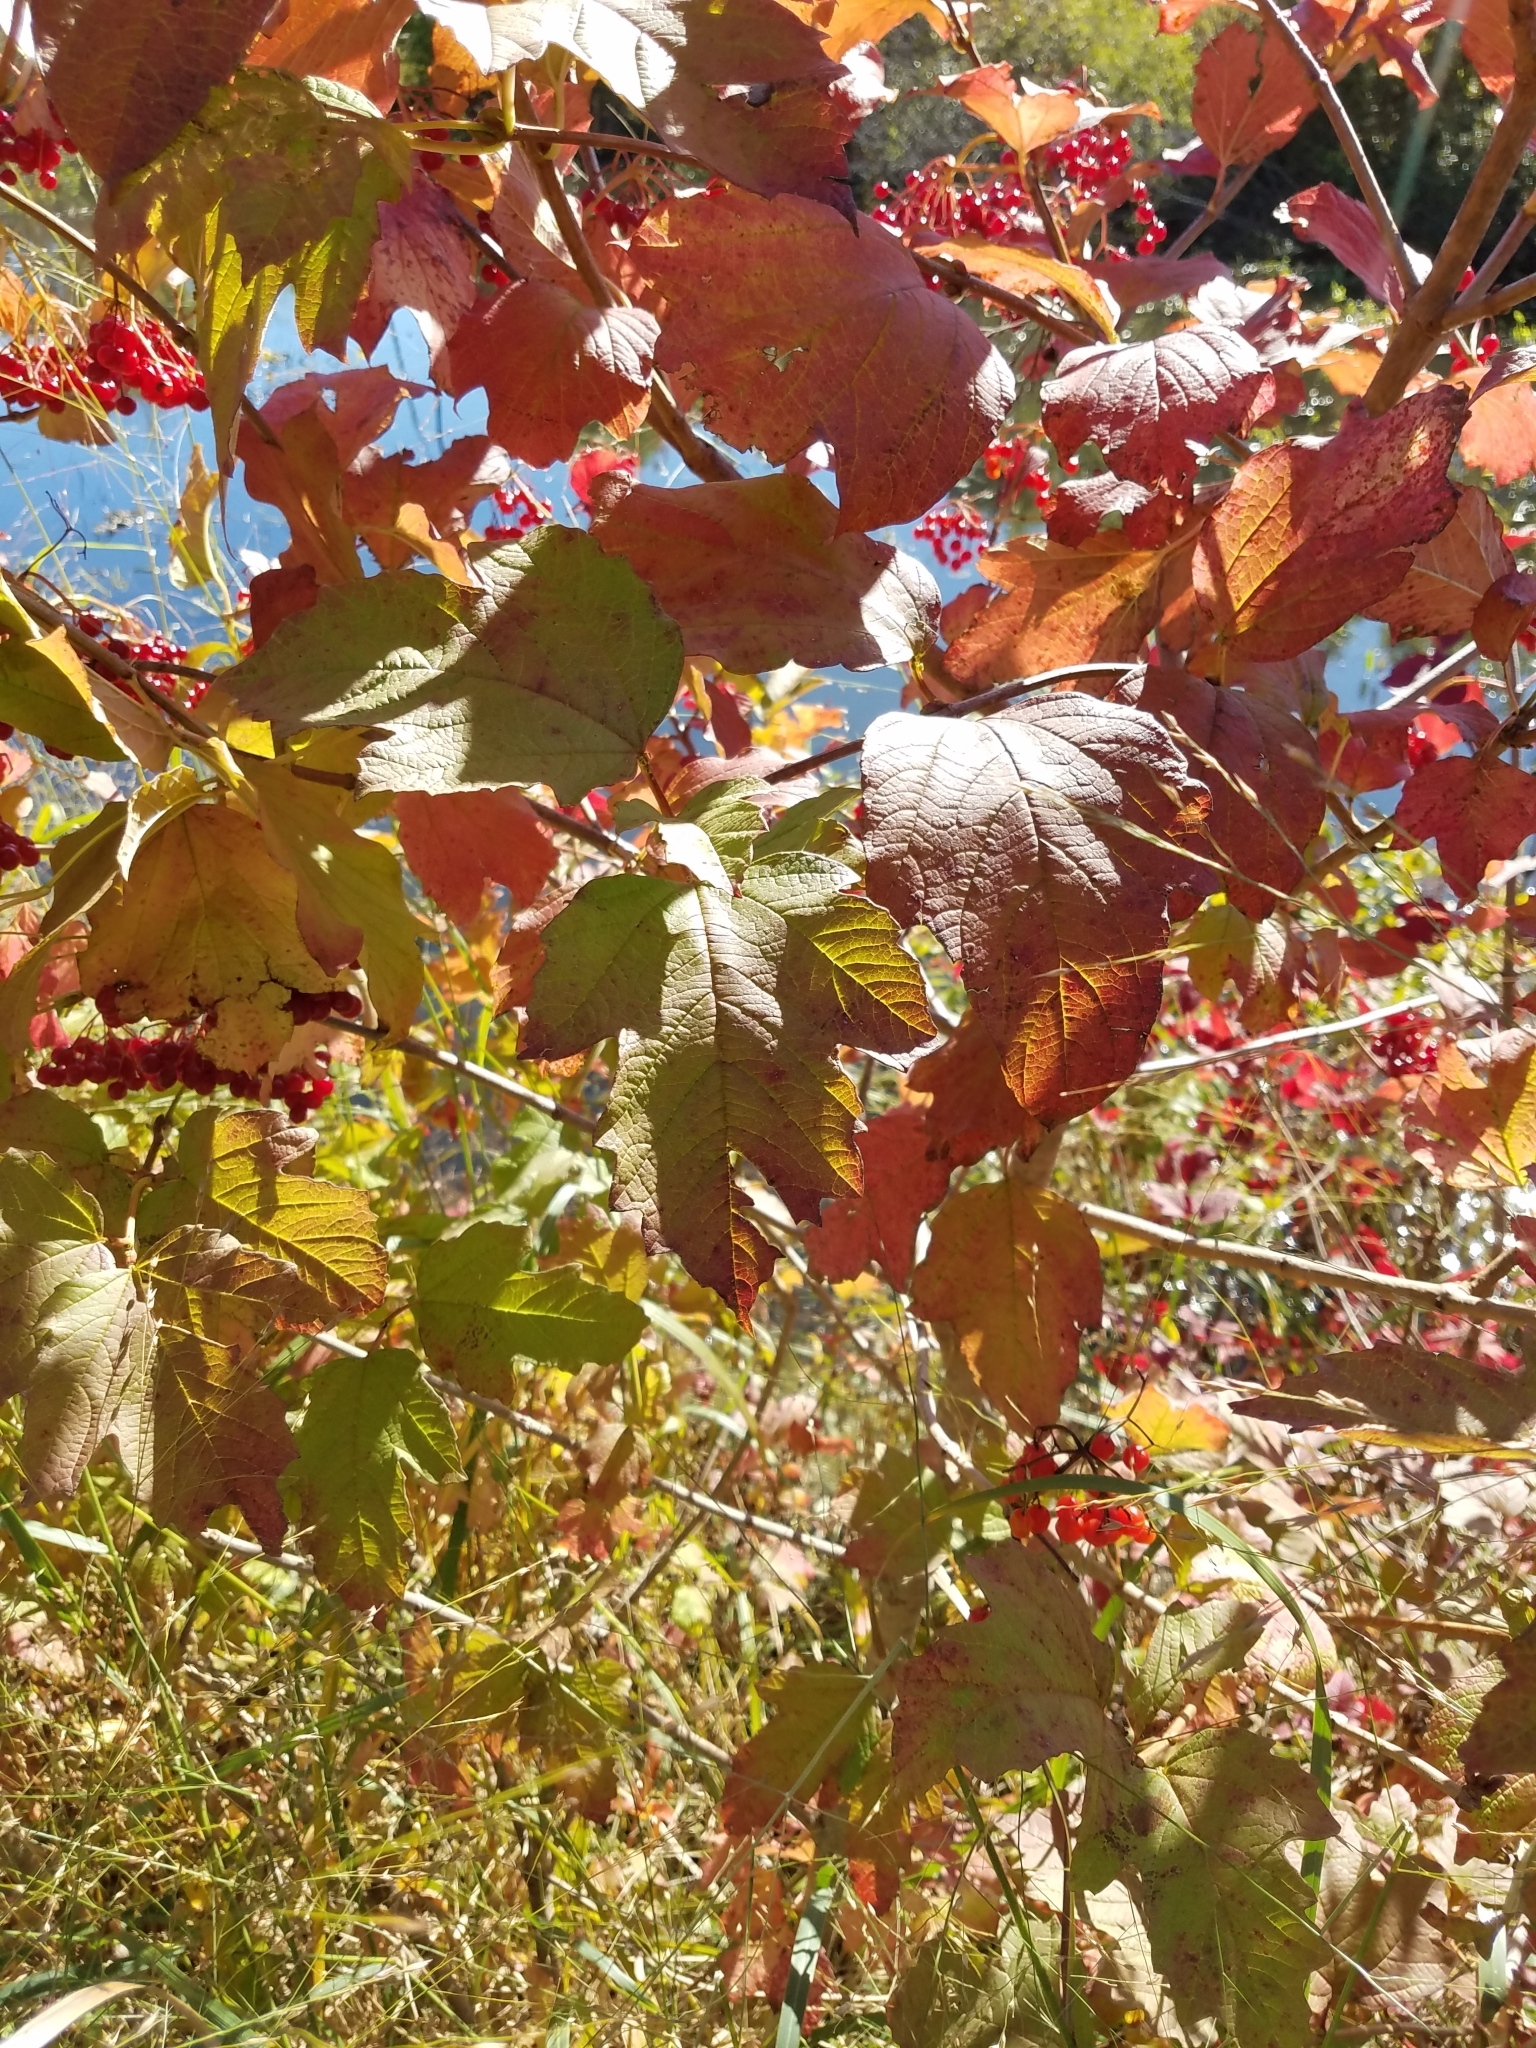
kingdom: Plantae
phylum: Tracheophyta
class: Magnoliopsida
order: Dipsacales
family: Viburnaceae
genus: Viburnum
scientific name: Viburnum opulus
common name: Guelder-rose
